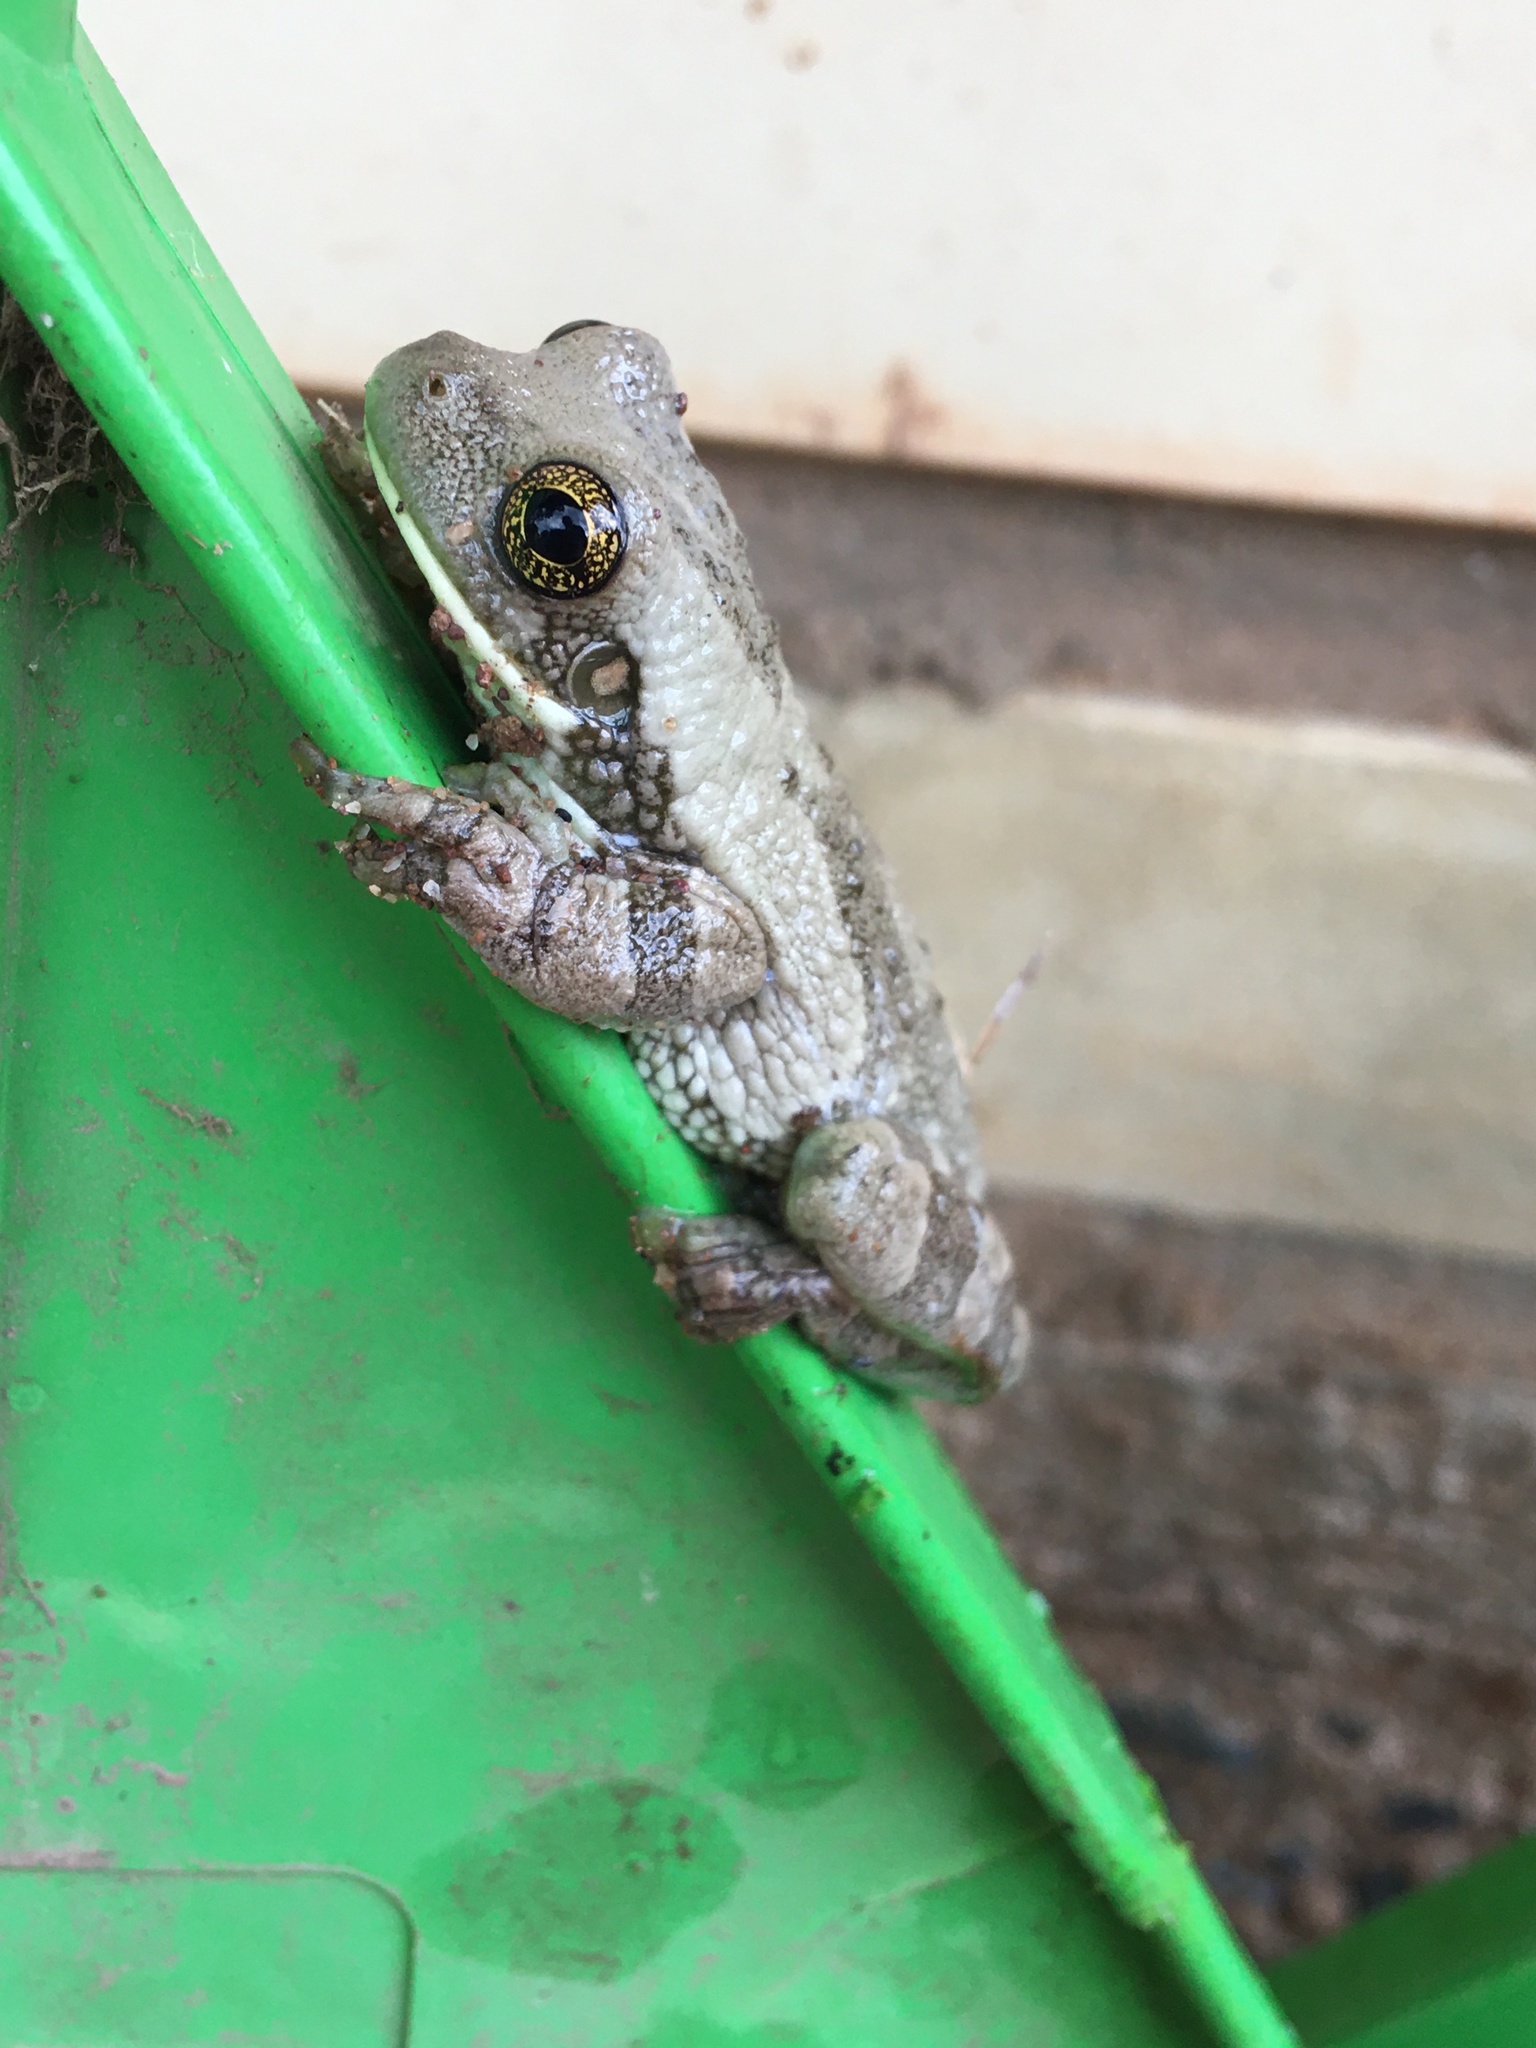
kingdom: Animalia
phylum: Chordata
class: Amphibia
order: Anura
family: Hylidae
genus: Trachycephalus
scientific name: Trachycephalus typhonius
